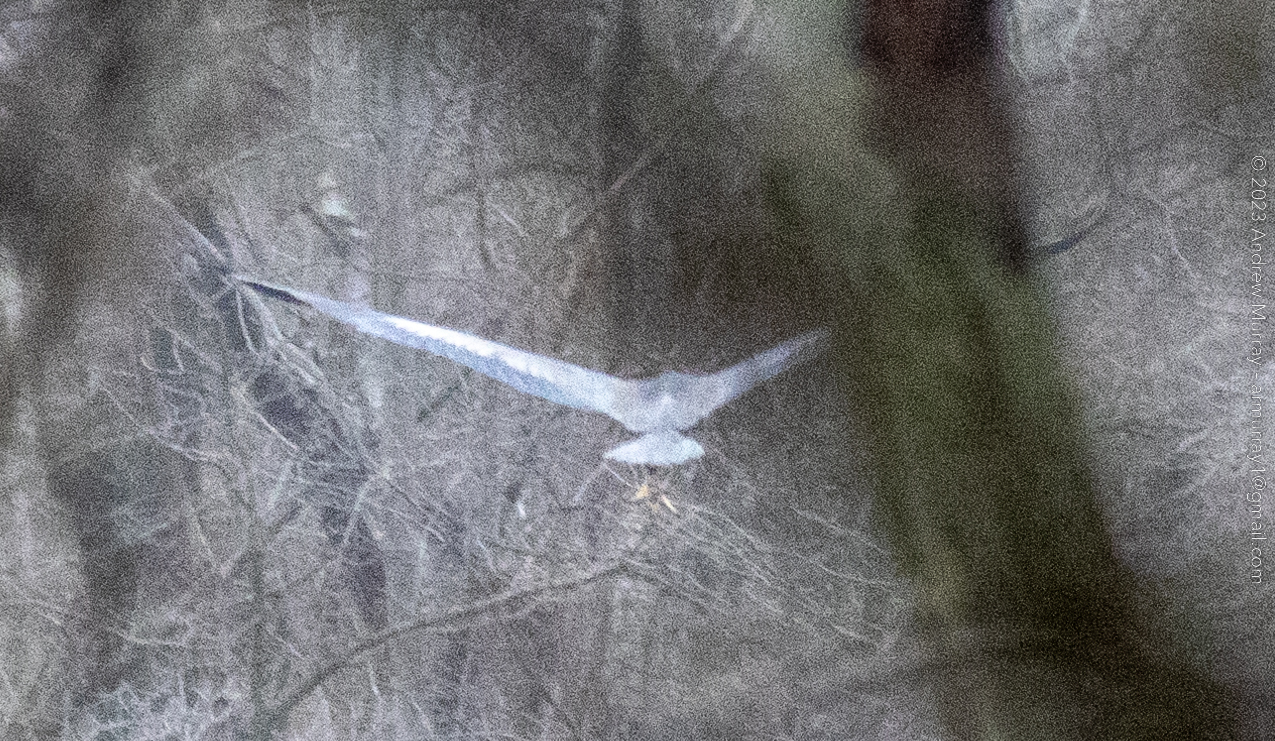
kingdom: Animalia
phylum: Chordata
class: Aves
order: Pelecaniformes
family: Ardeidae
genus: Ardea
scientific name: Ardea herodias
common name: Great blue heron
